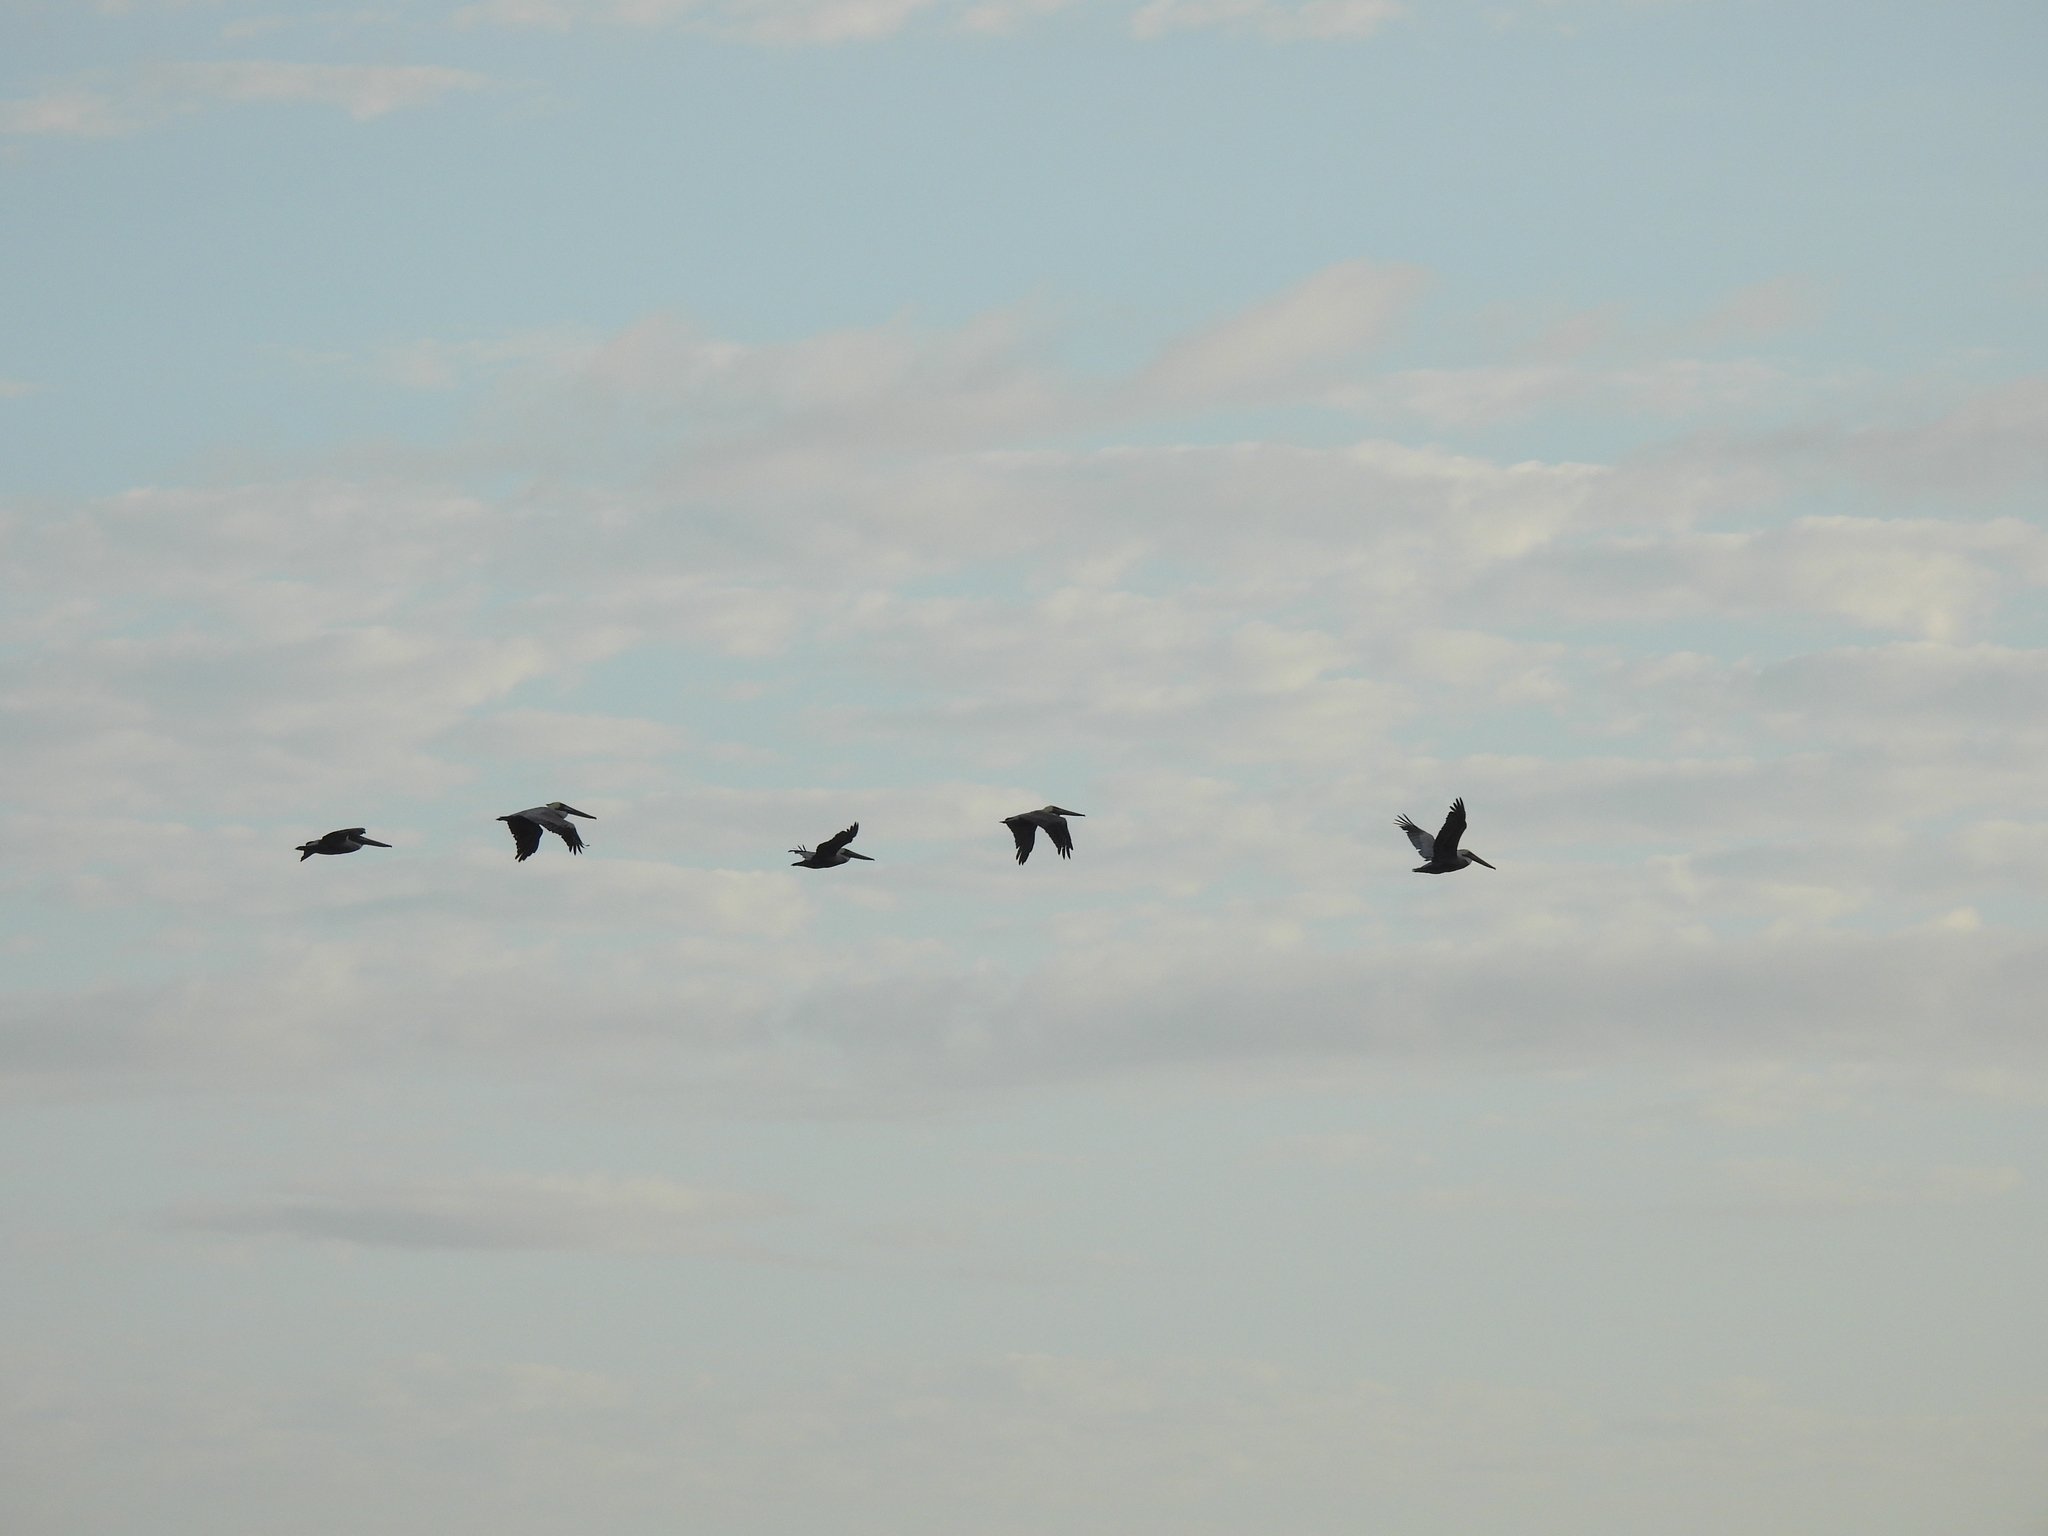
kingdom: Animalia
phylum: Chordata
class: Aves
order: Pelecaniformes
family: Pelecanidae
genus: Pelecanus
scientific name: Pelecanus occidentalis
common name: Brown pelican
